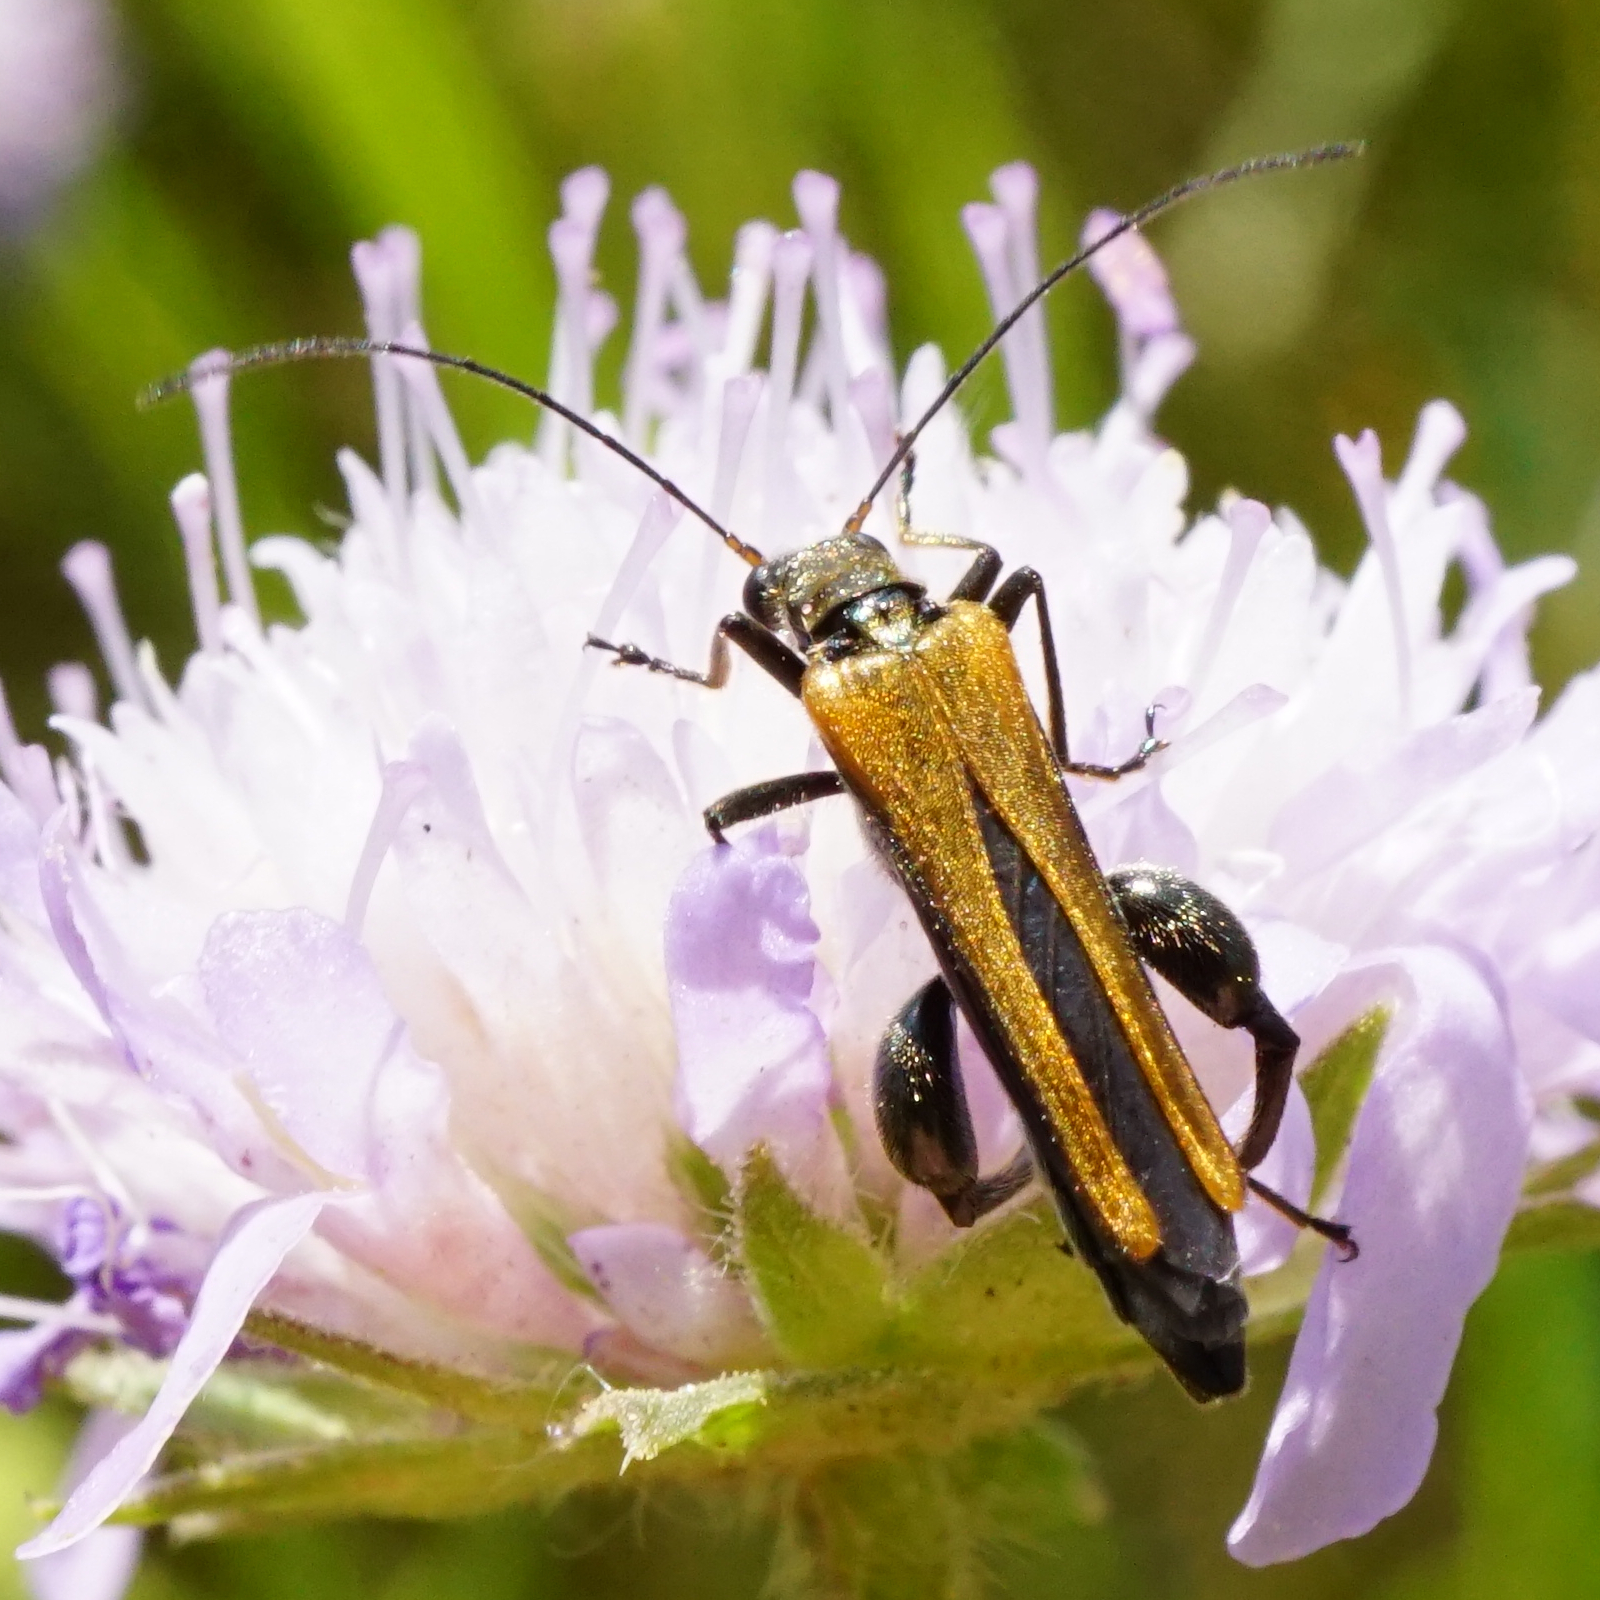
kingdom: Animalia
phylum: Arthropoda
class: Insecta
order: Coleoptera
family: Oedemeridae
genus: Oedemera
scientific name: Oedemera femorata
